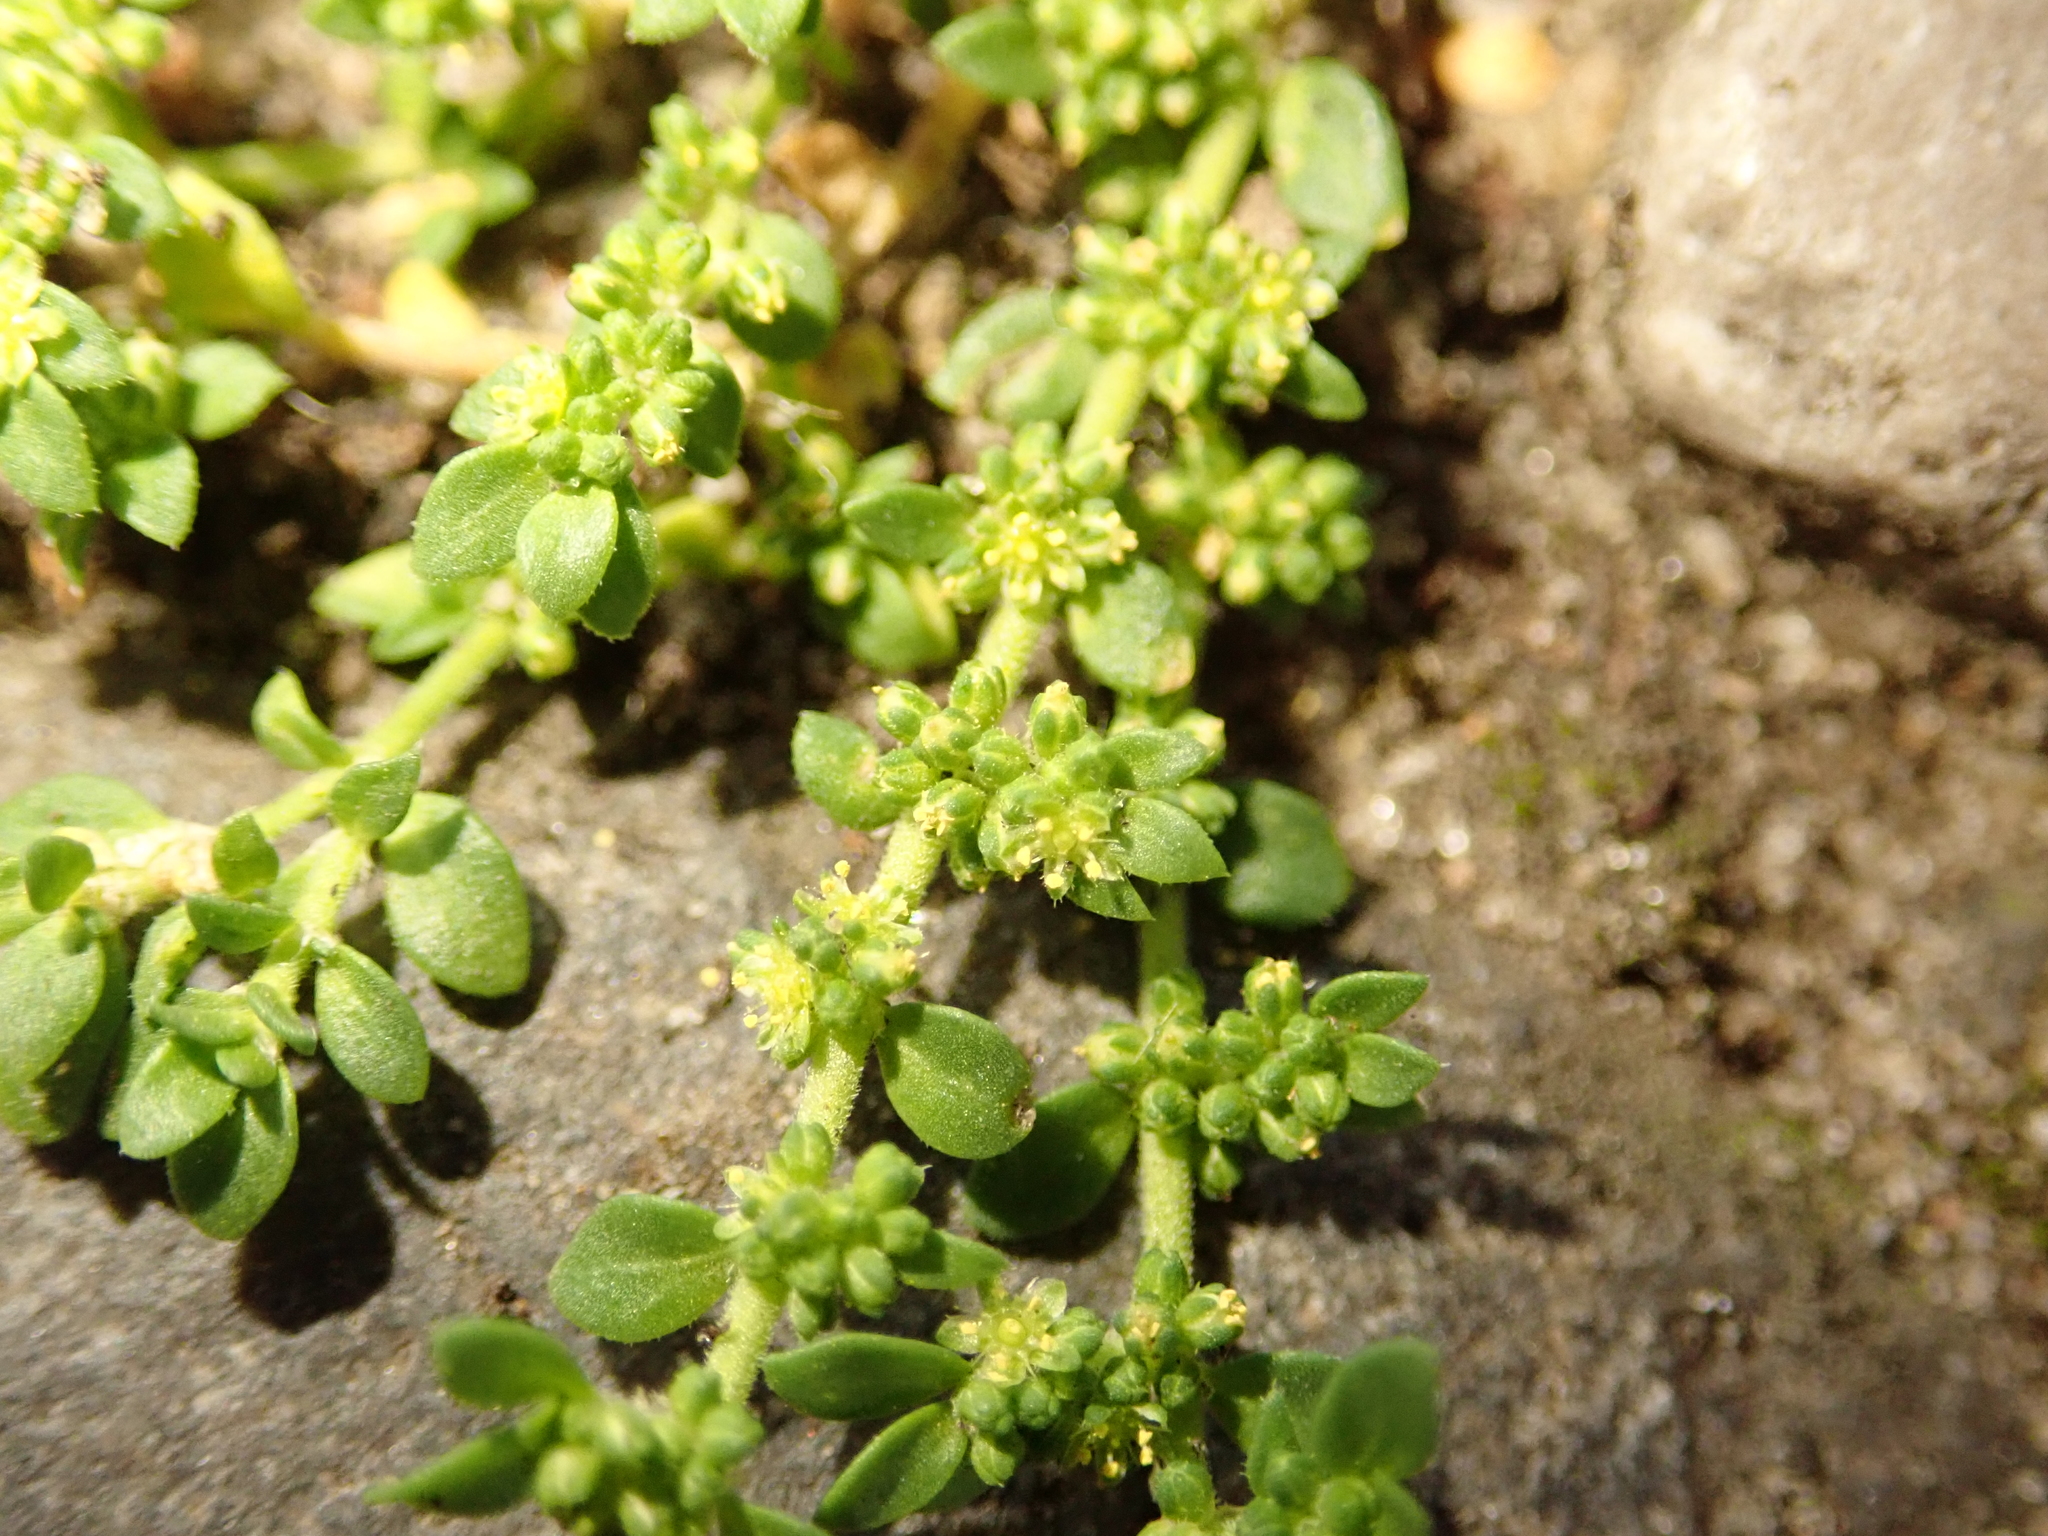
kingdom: Plantae
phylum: Tracheophyta
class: Magnoliopsida
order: Caryophyllales
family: Caryophyllaceae
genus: Herniaria
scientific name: Herniaria glabra
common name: Smooth rupturewort
